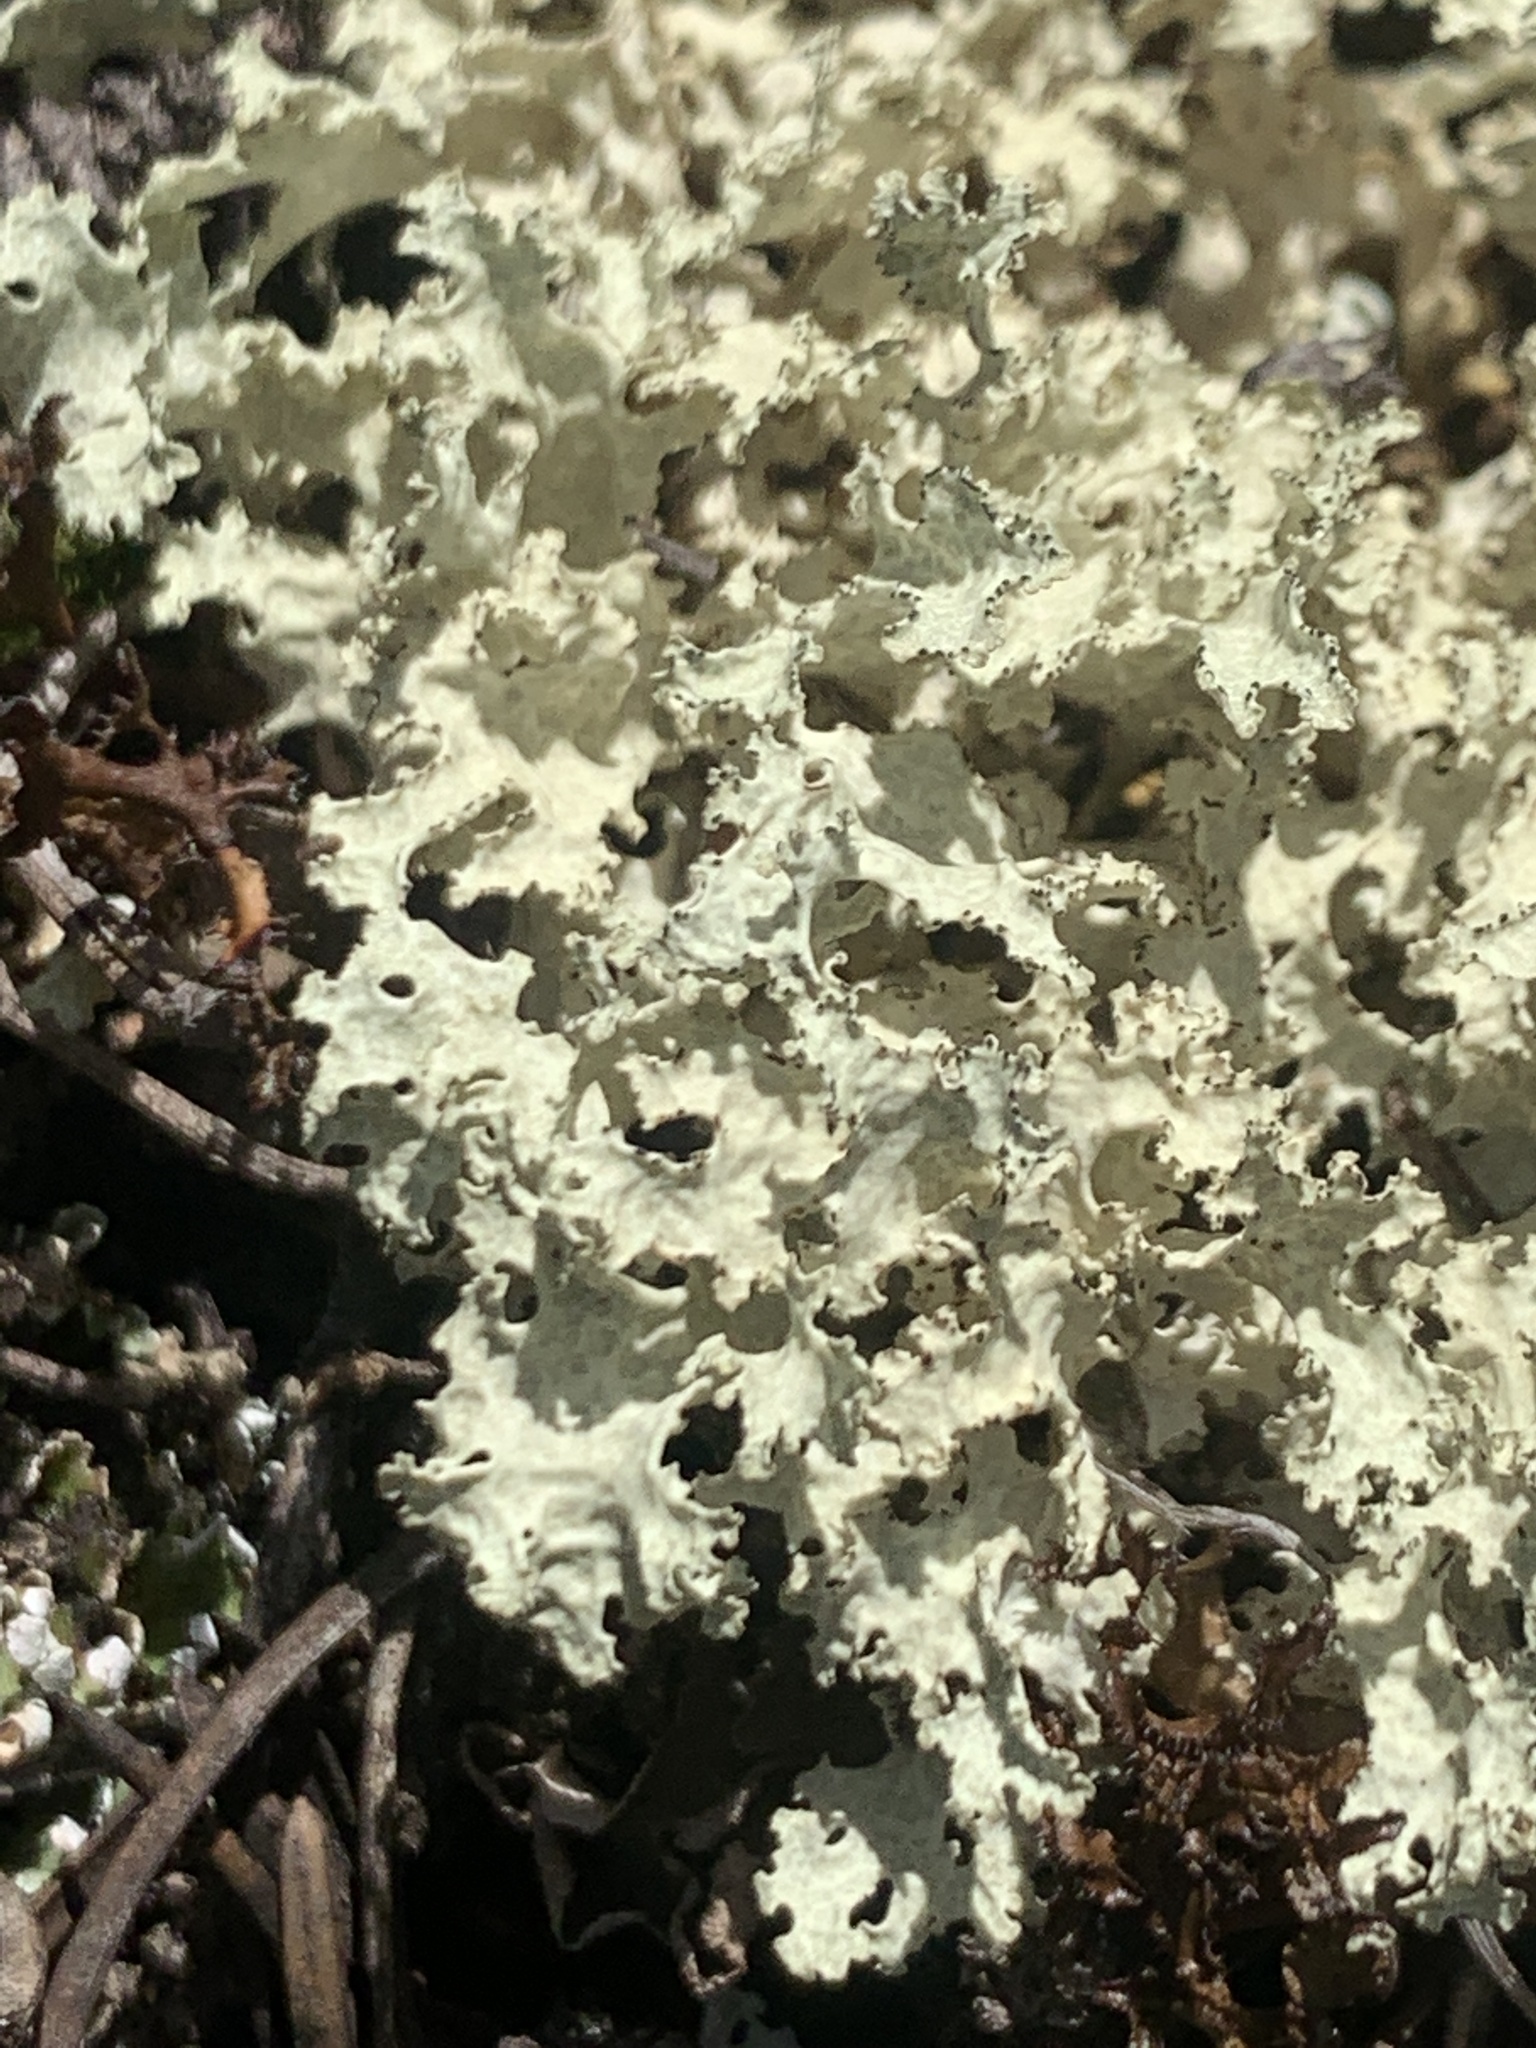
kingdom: Fungi
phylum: Ascomycota
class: Lecanoromycetes
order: Lecanorales
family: Parmeliaceae
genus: Nephromopsis
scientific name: Nephromopsis nivalis
